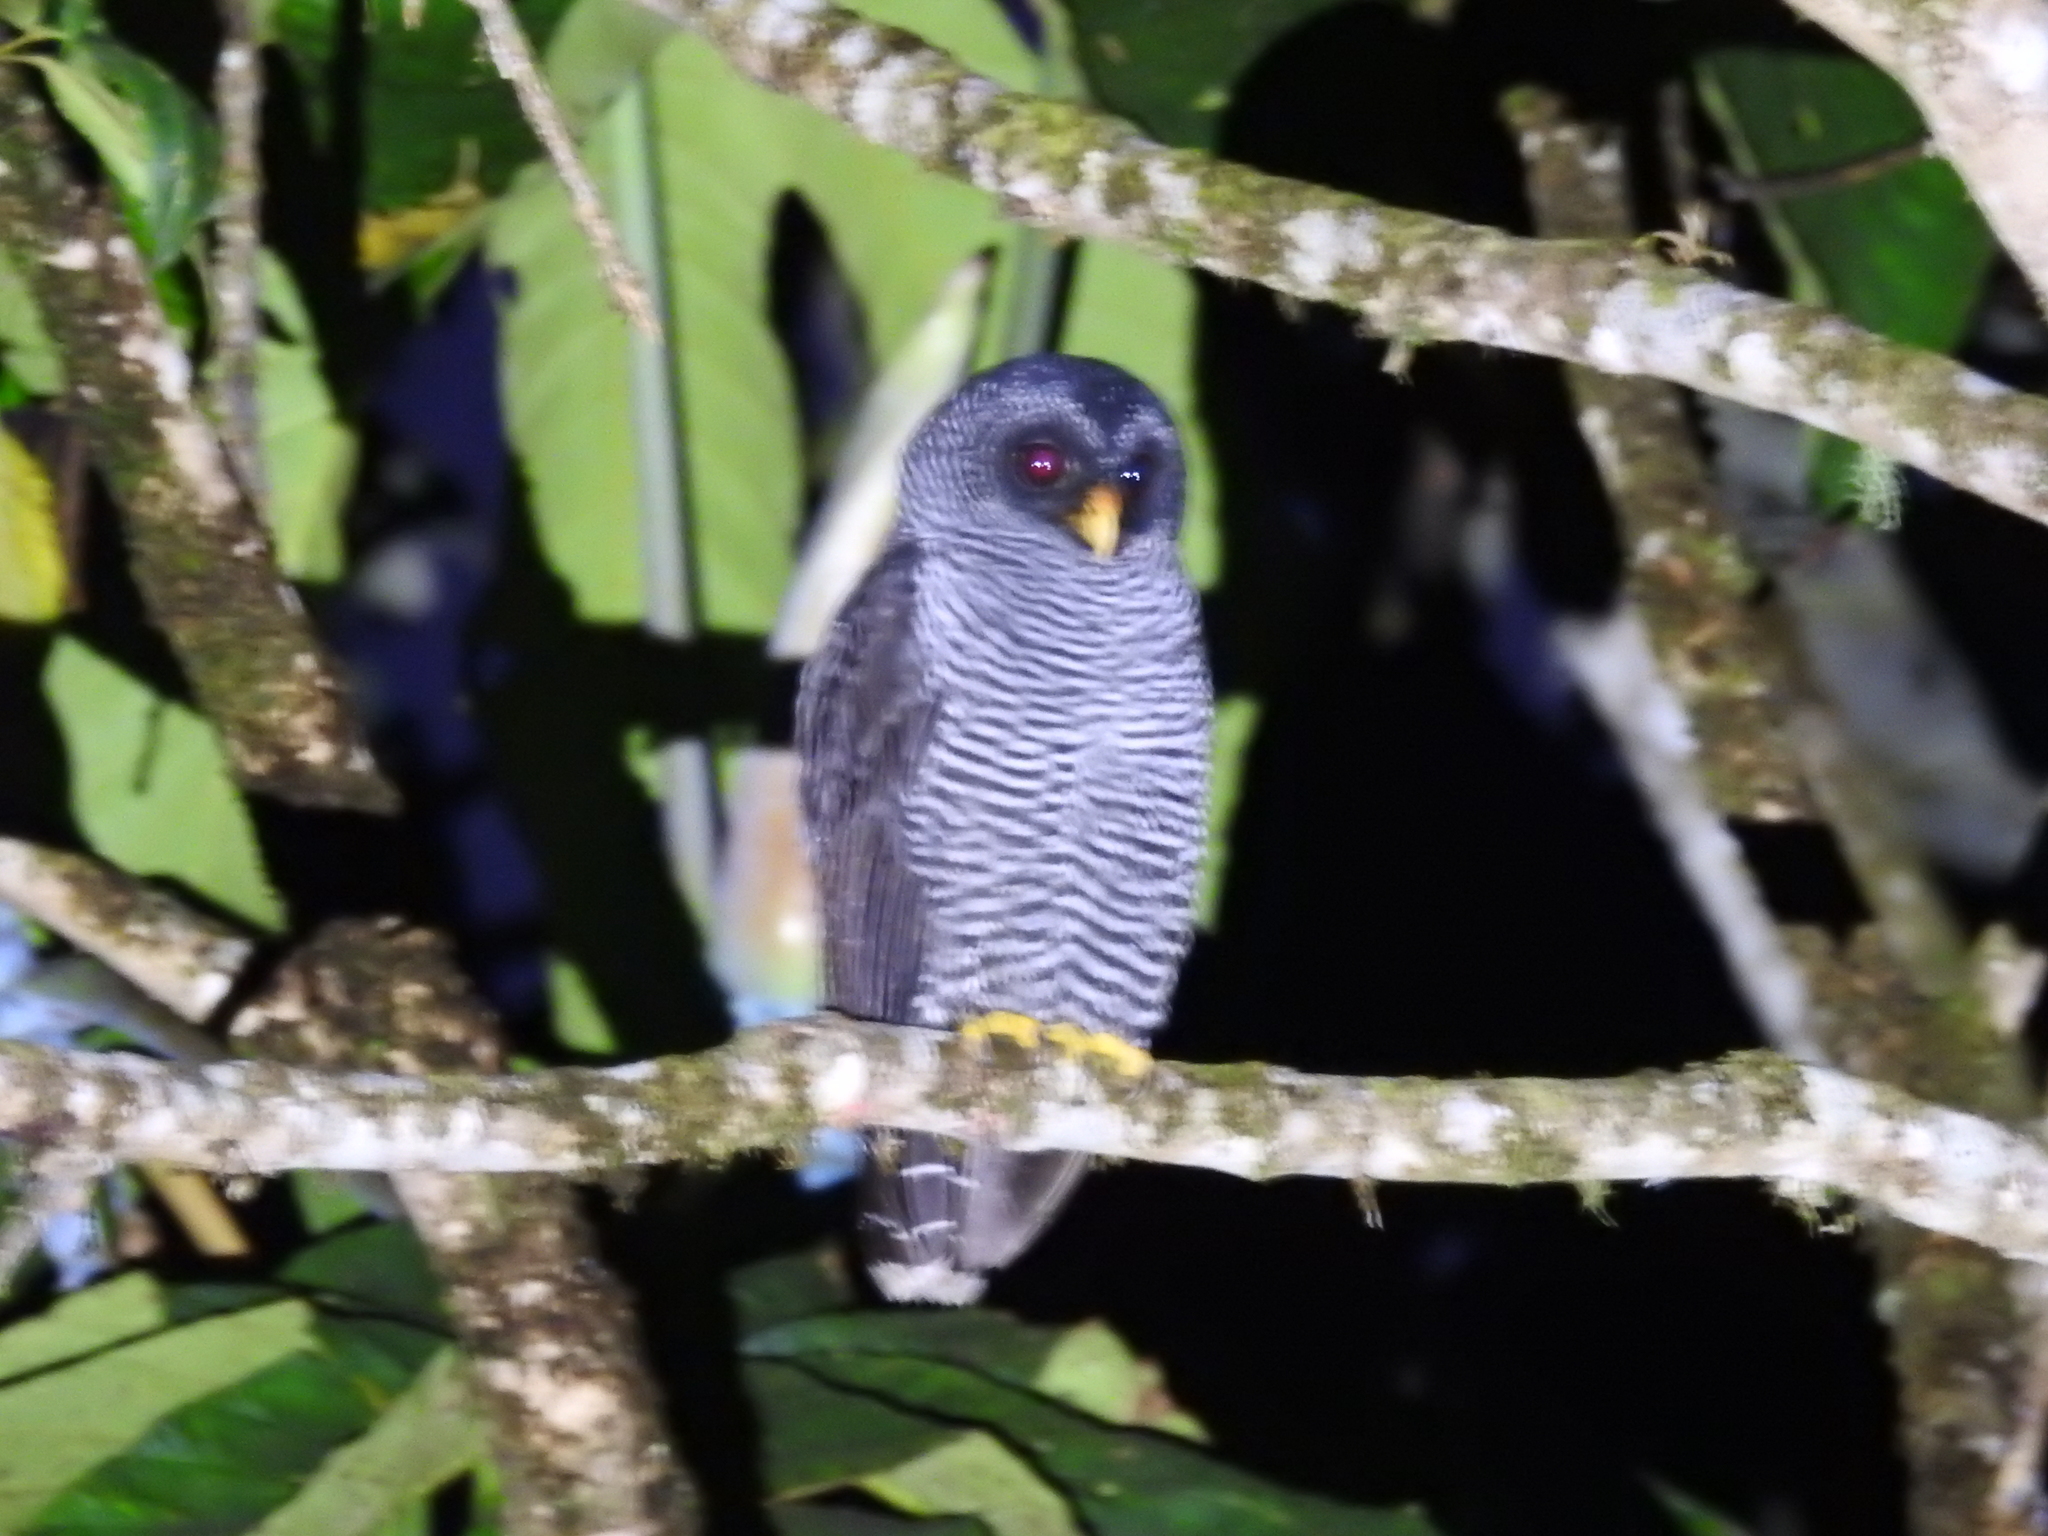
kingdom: Animalia
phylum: Chordata
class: Aves
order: Strigiformes
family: Strigidae
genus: Strix
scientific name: Strix huhula
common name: Black-banded owl
